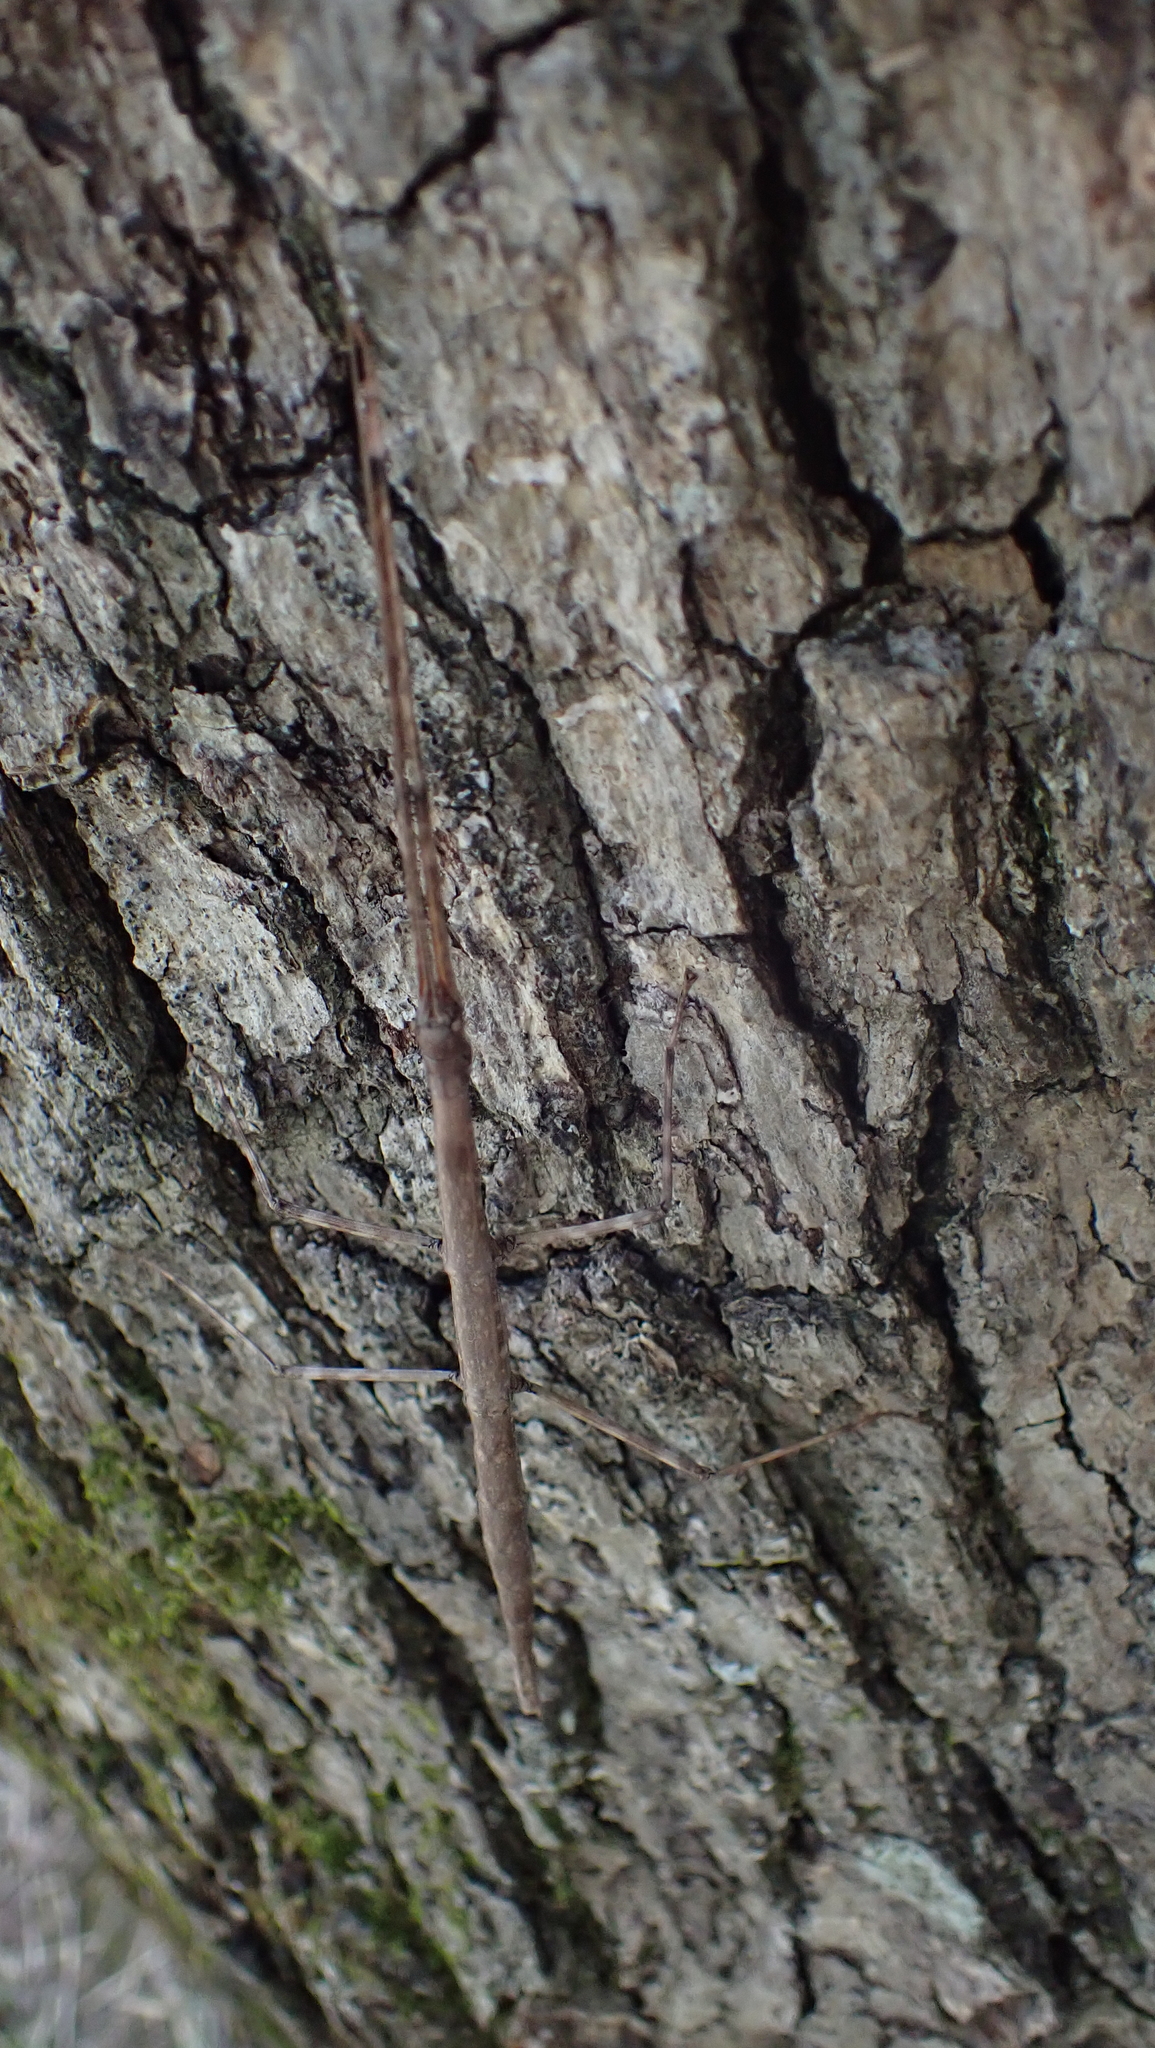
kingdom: Animalia
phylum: Arthropoda
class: Insecta
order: Phasmida
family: Diapheromeridae
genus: Diapheromera
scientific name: Diapheromera femorata
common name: Common american walkingstick
